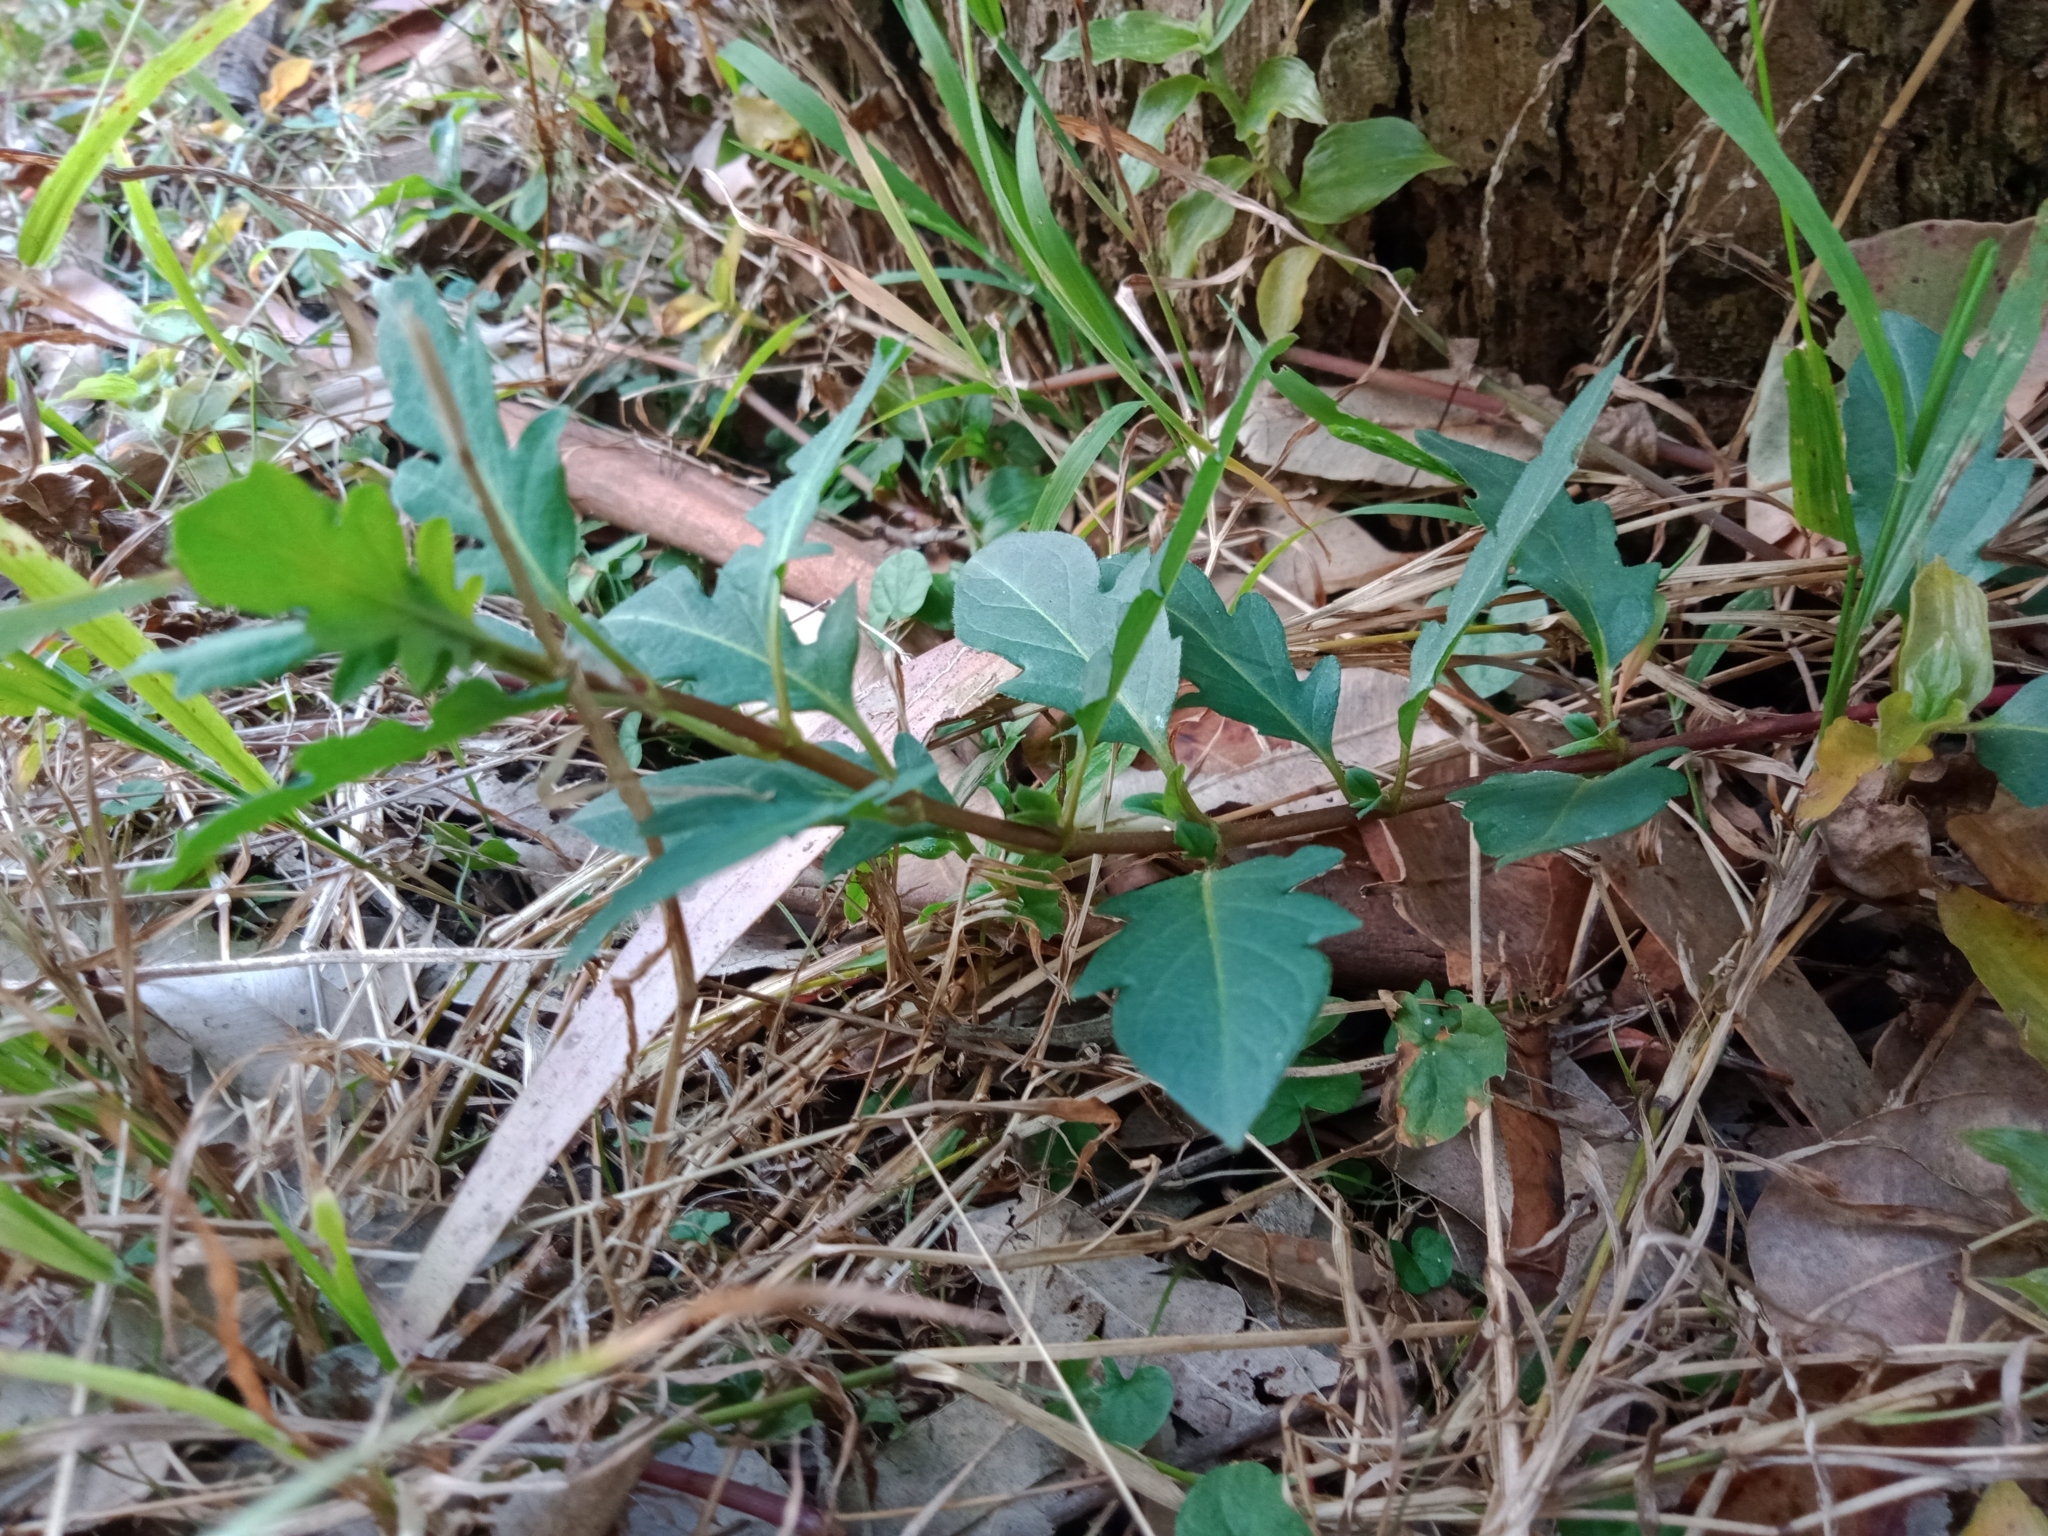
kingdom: Plantae
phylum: Tracheophyta
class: Magnoliopsida
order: Dipsacales
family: Caprifoliaceae
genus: Lonicera
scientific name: Lonicera japonica
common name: Japanese honeysuckle
